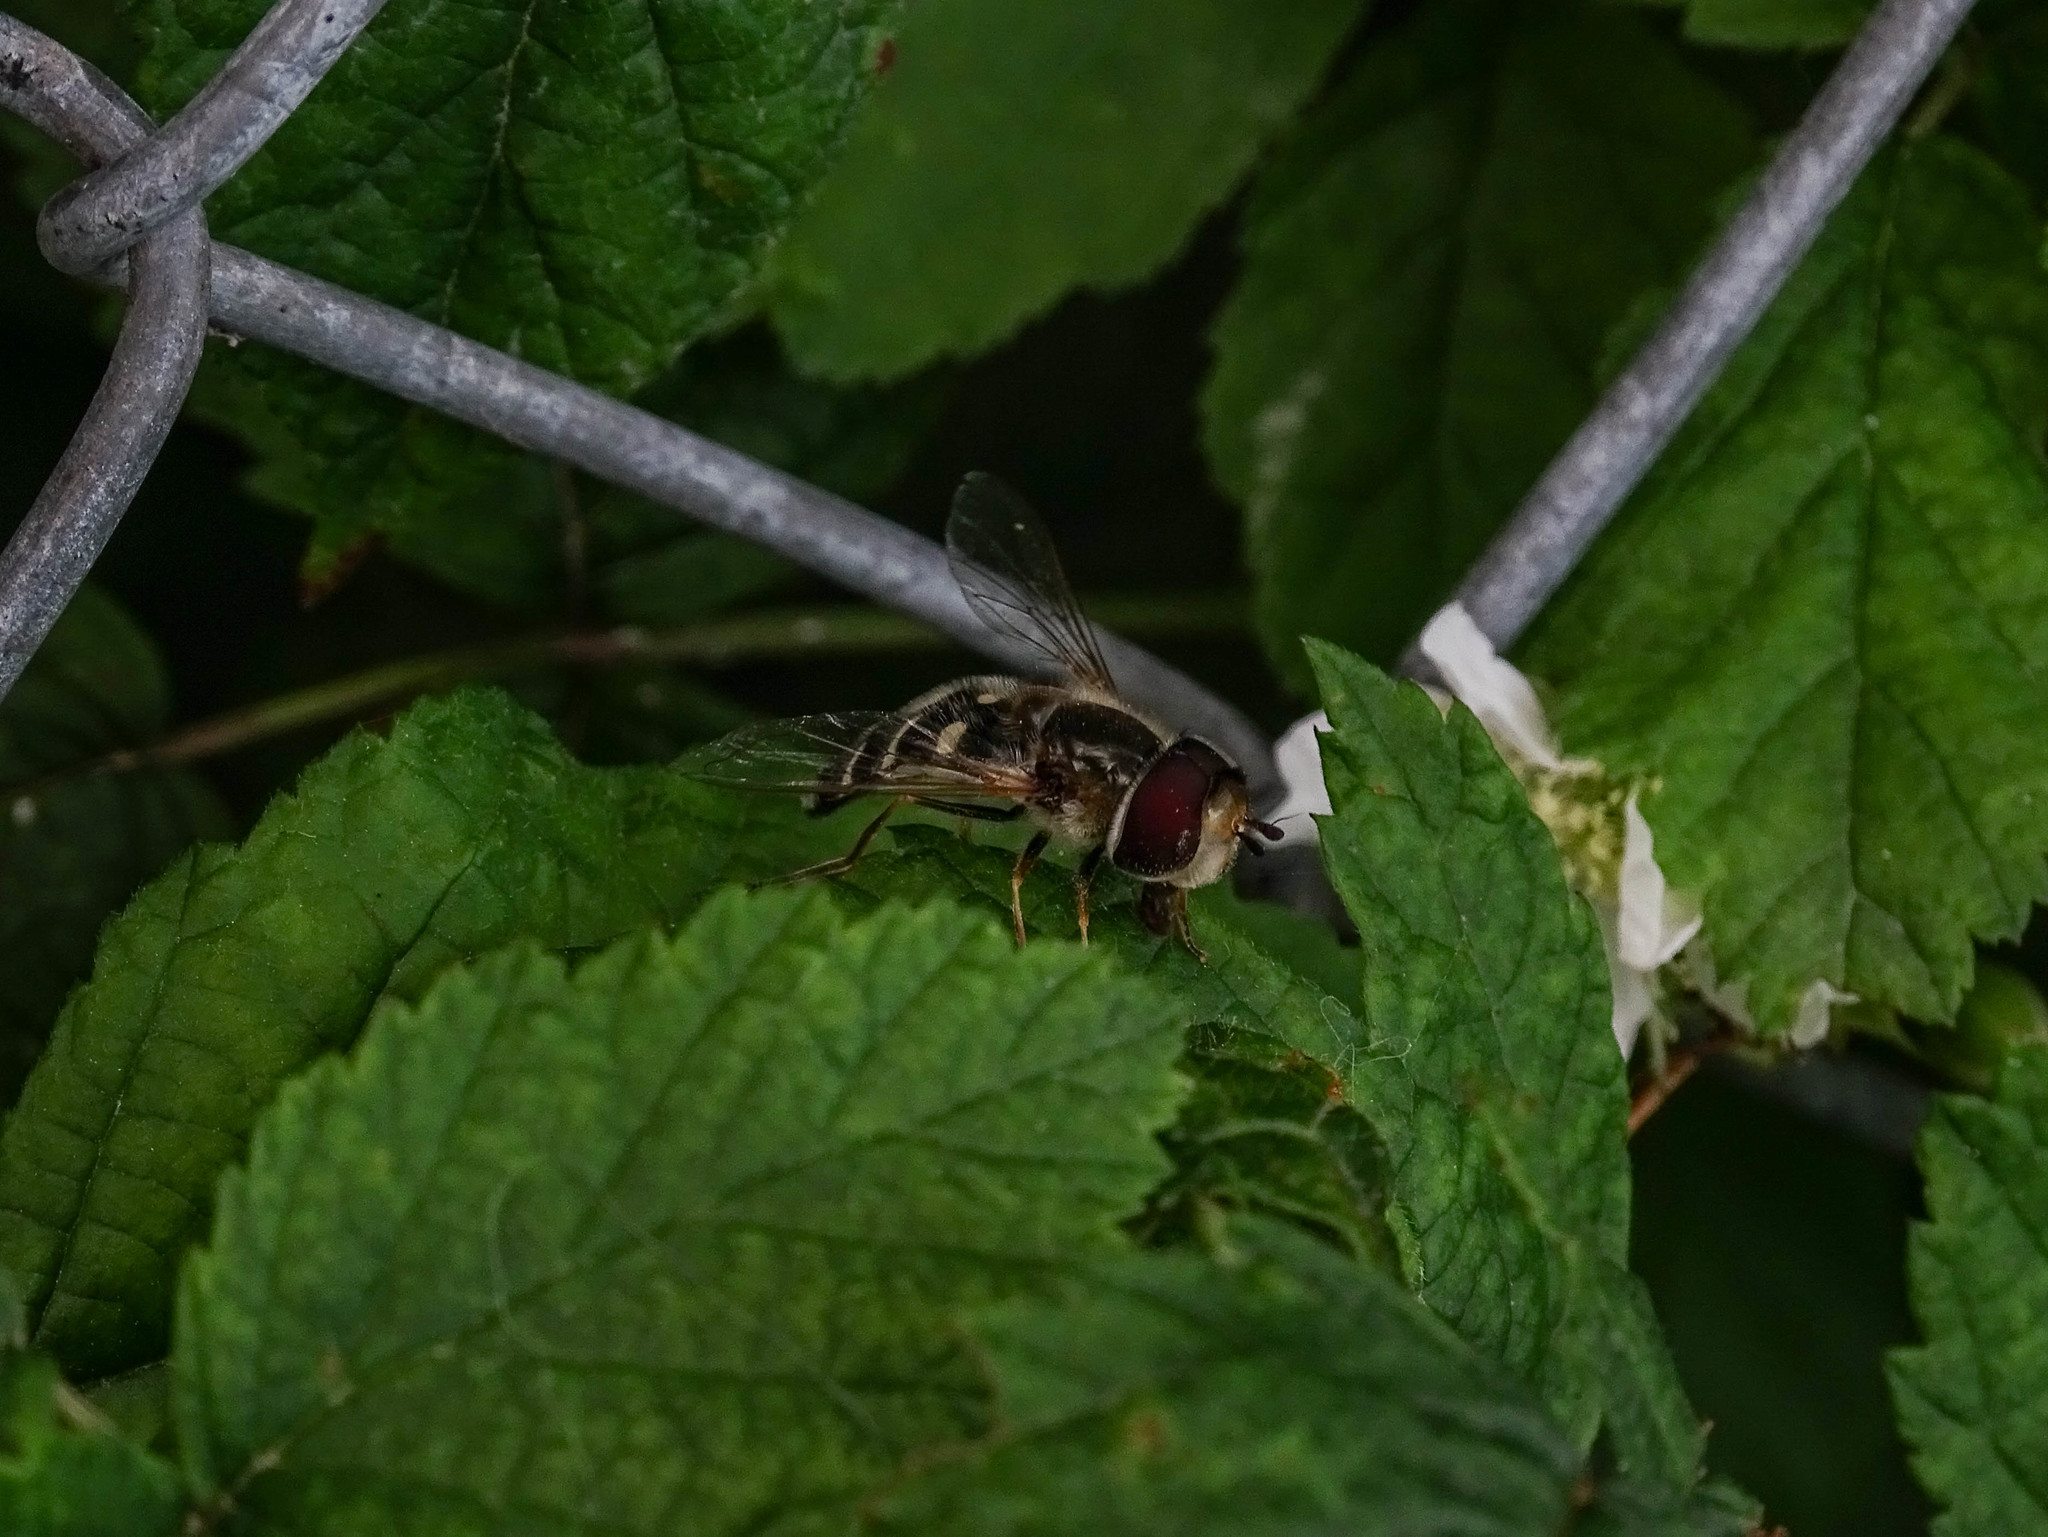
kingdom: Animalia
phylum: Arthropoda
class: Insecta
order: Diptera
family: Syrphidae
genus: Scaeva
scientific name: Scaeva pyrastri
